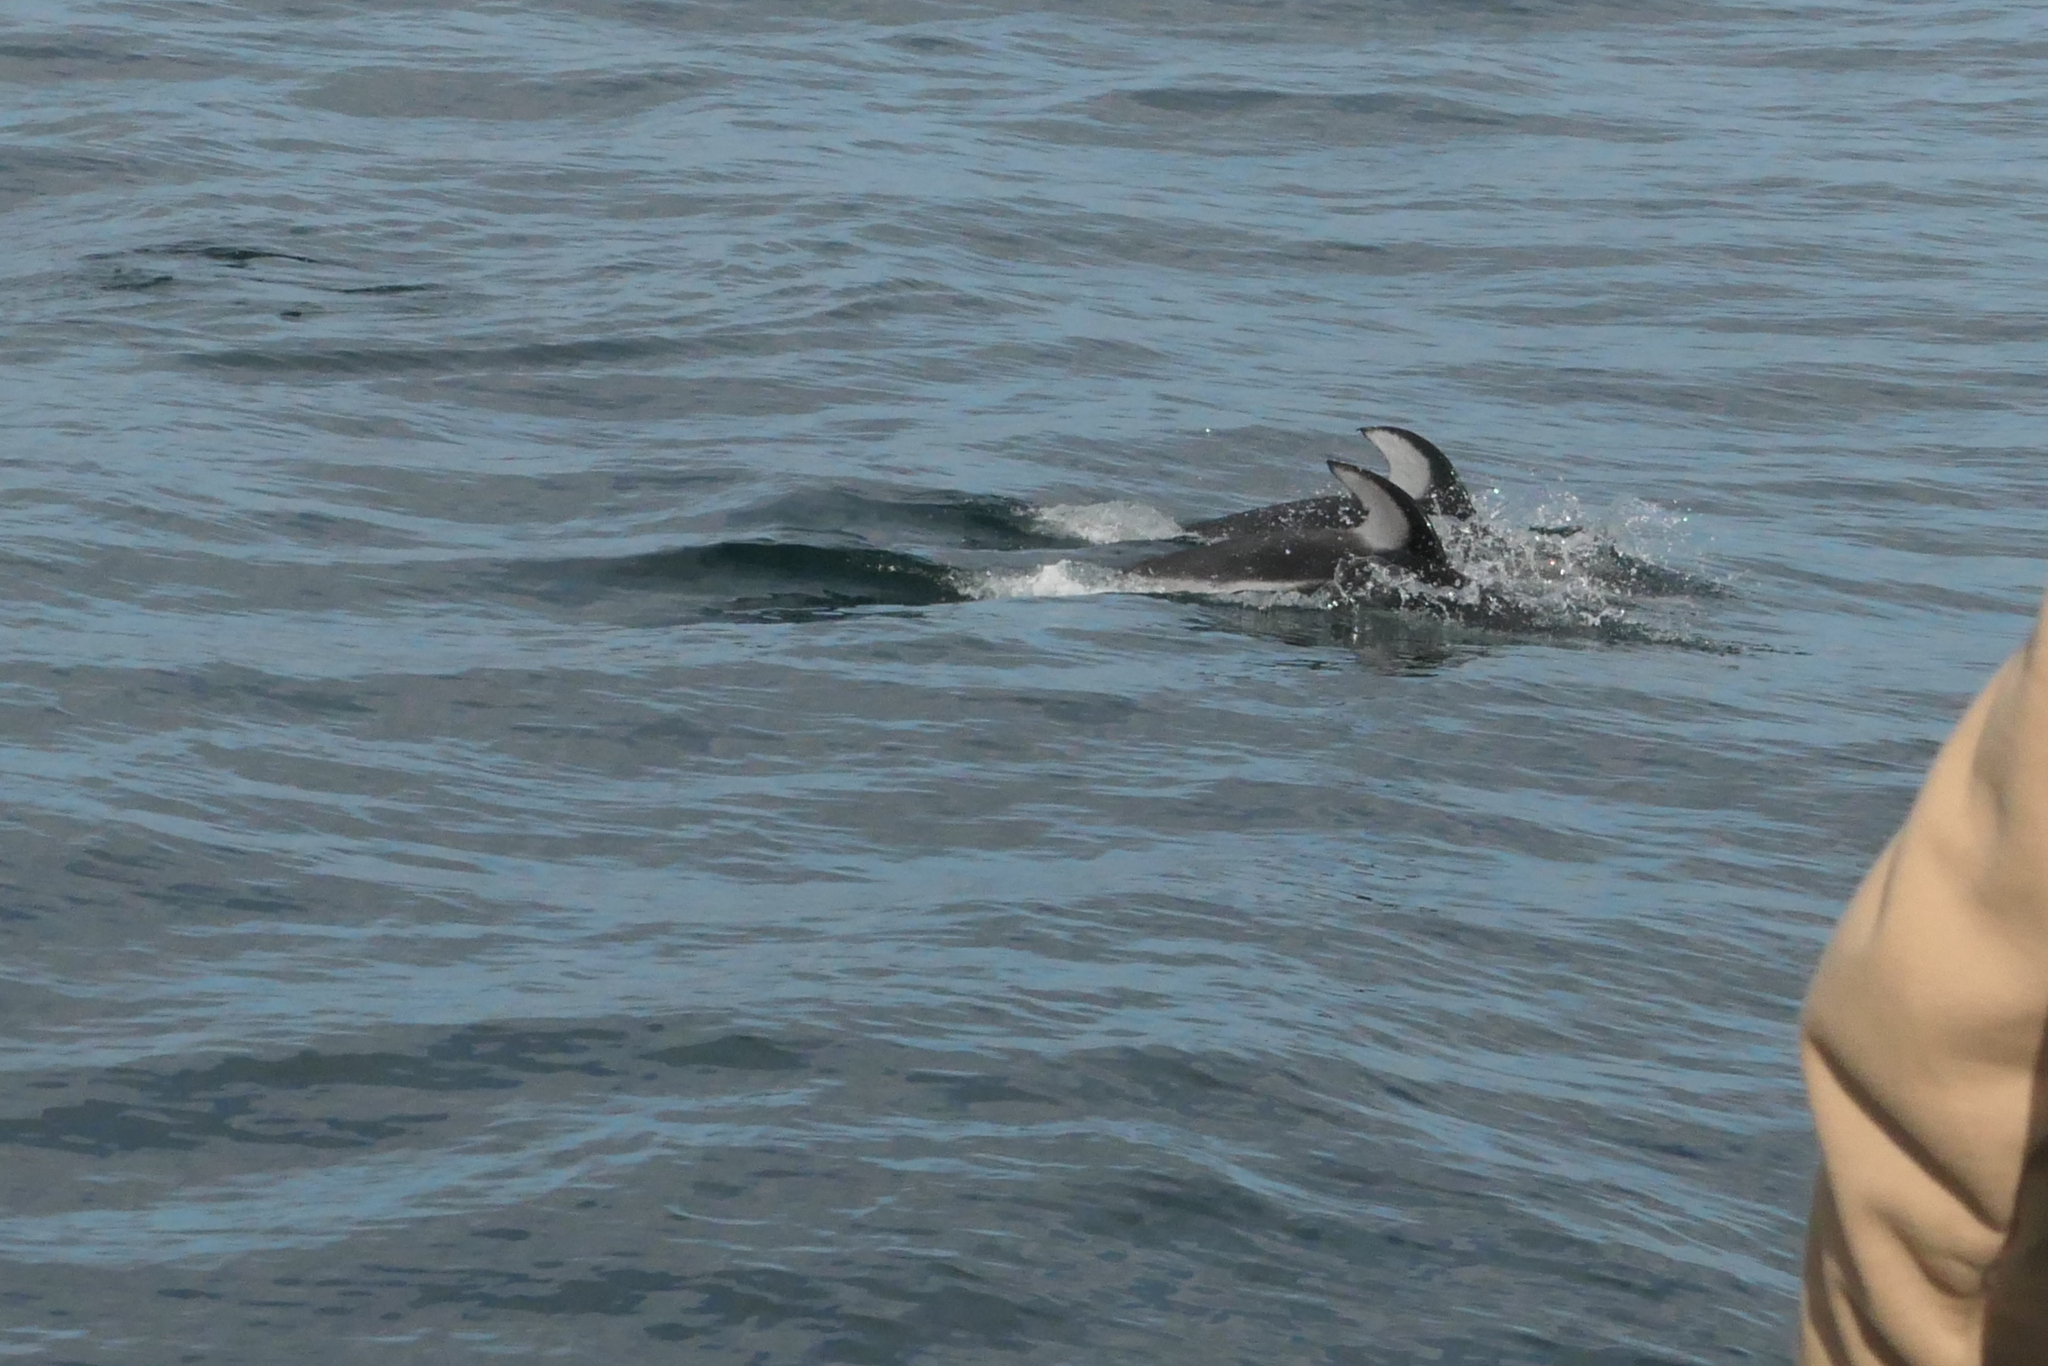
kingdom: Animalia
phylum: Chordata
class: Mammalia
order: Cetacea
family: Delphinidae
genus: Lagenorhynchus
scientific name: Lagenorhynchus obliquidens
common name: Pacific white-sided dolphin
